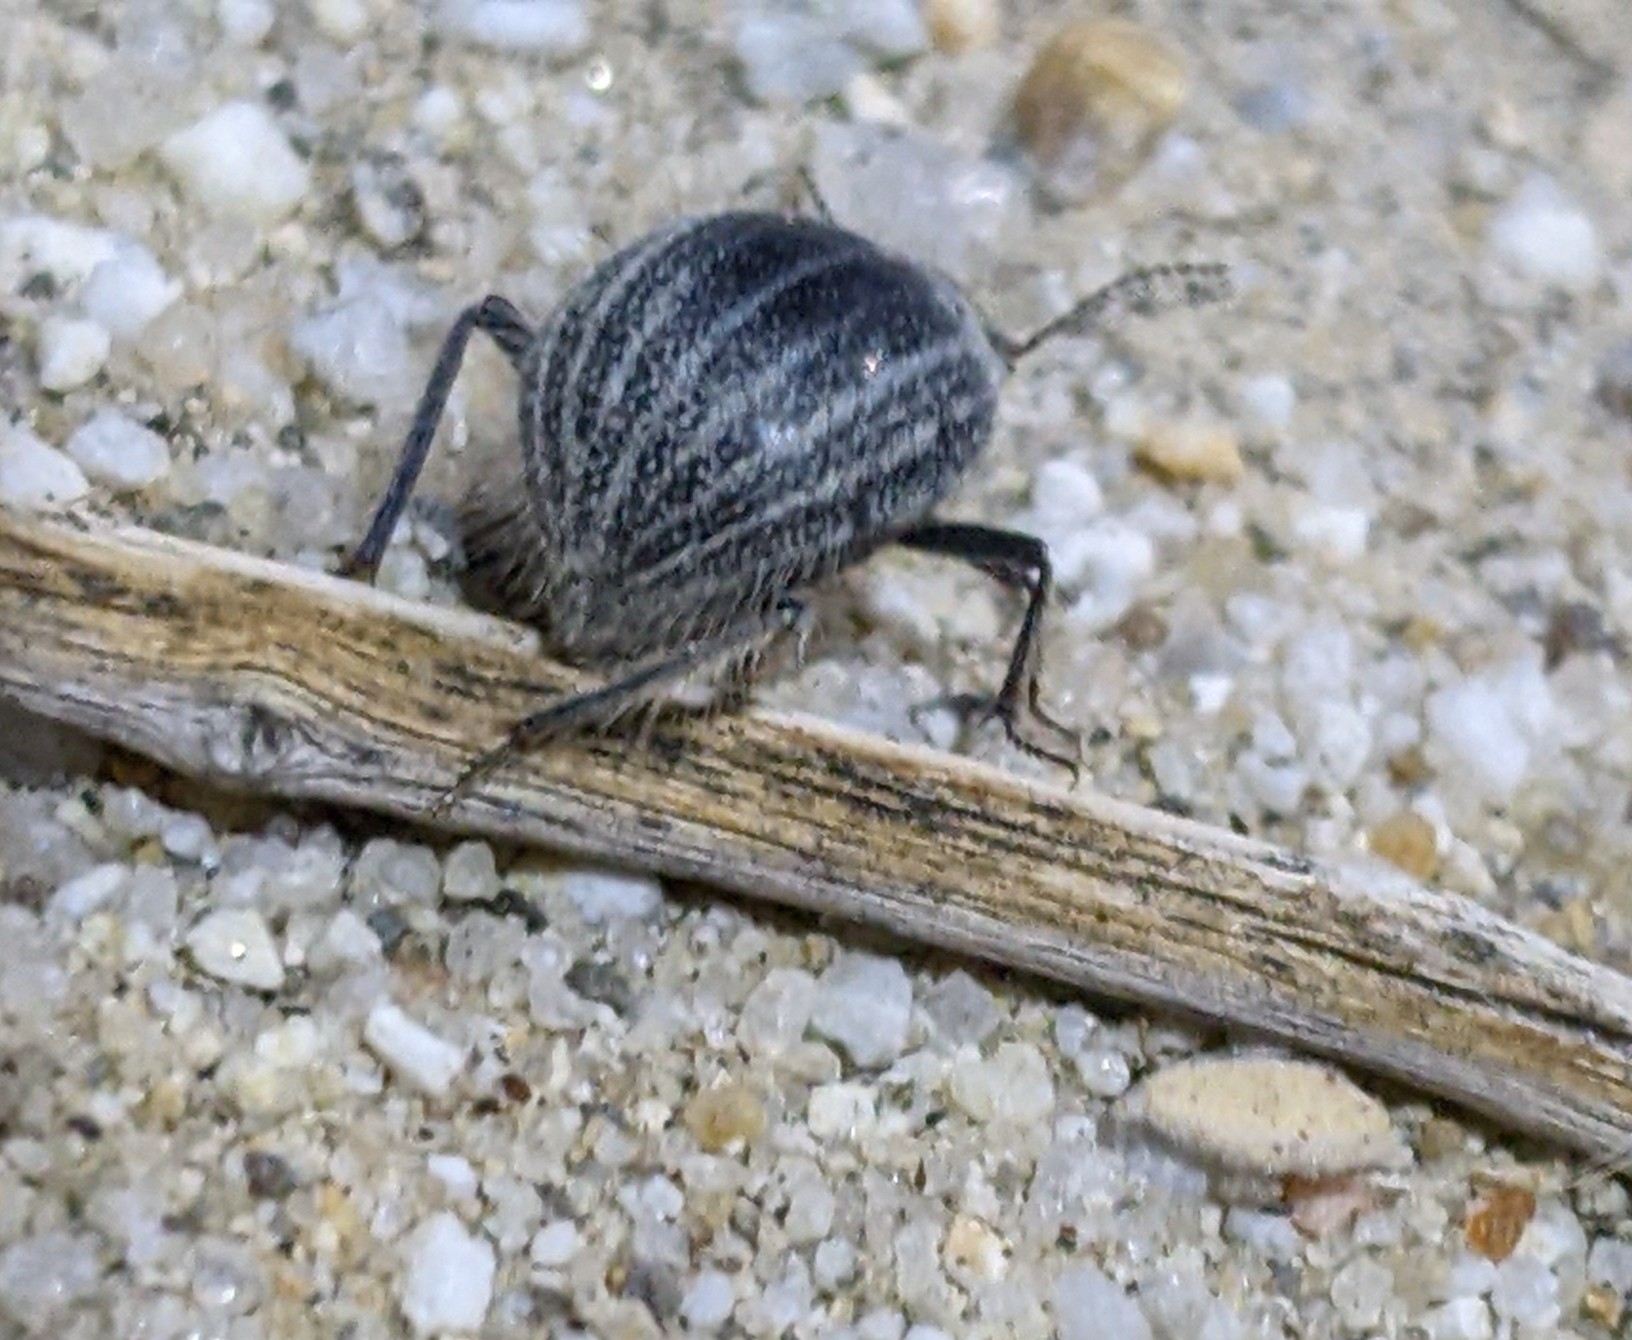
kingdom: Animalia
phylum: Arthropoda
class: Insecta
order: Coleoptera
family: Tenebrionidae
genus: Edrotes
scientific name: Edrotes ventricosus
